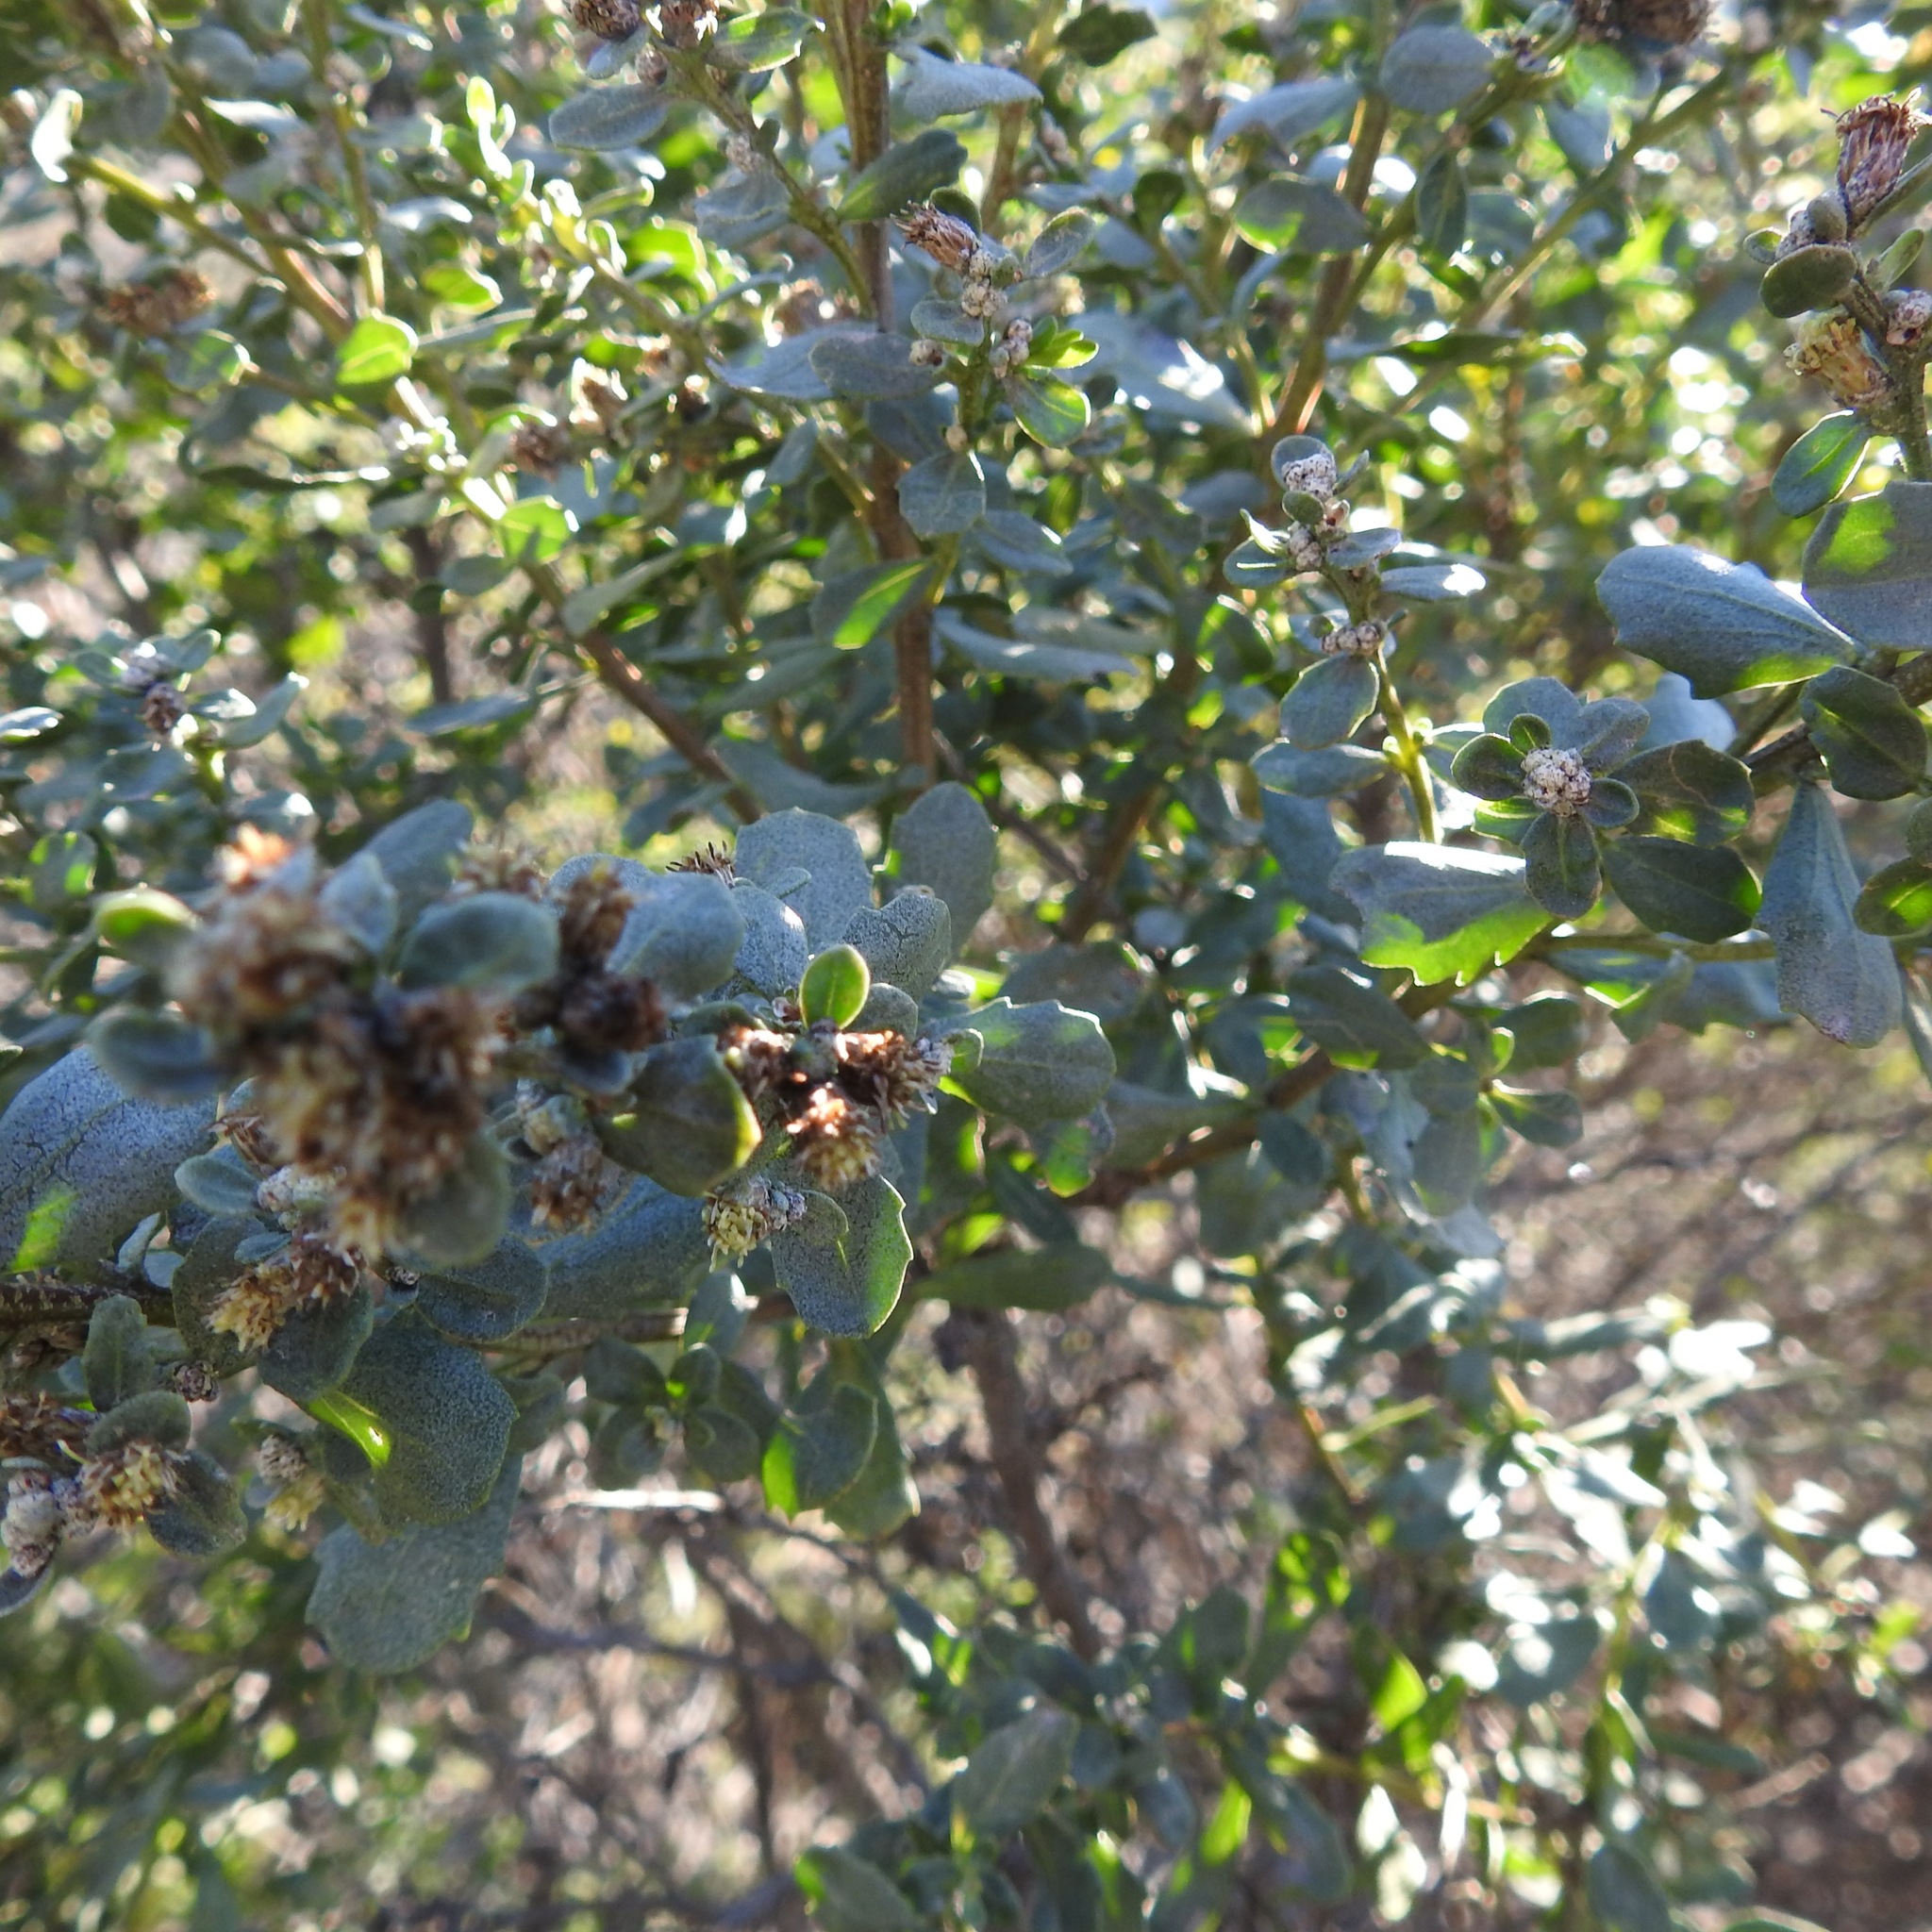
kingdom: Plantae
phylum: Tracheophyta
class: Magnoliopsida
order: Asterales
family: Asteraceae
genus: Baccharis
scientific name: Baccharis pilularis
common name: Coyotebrush
